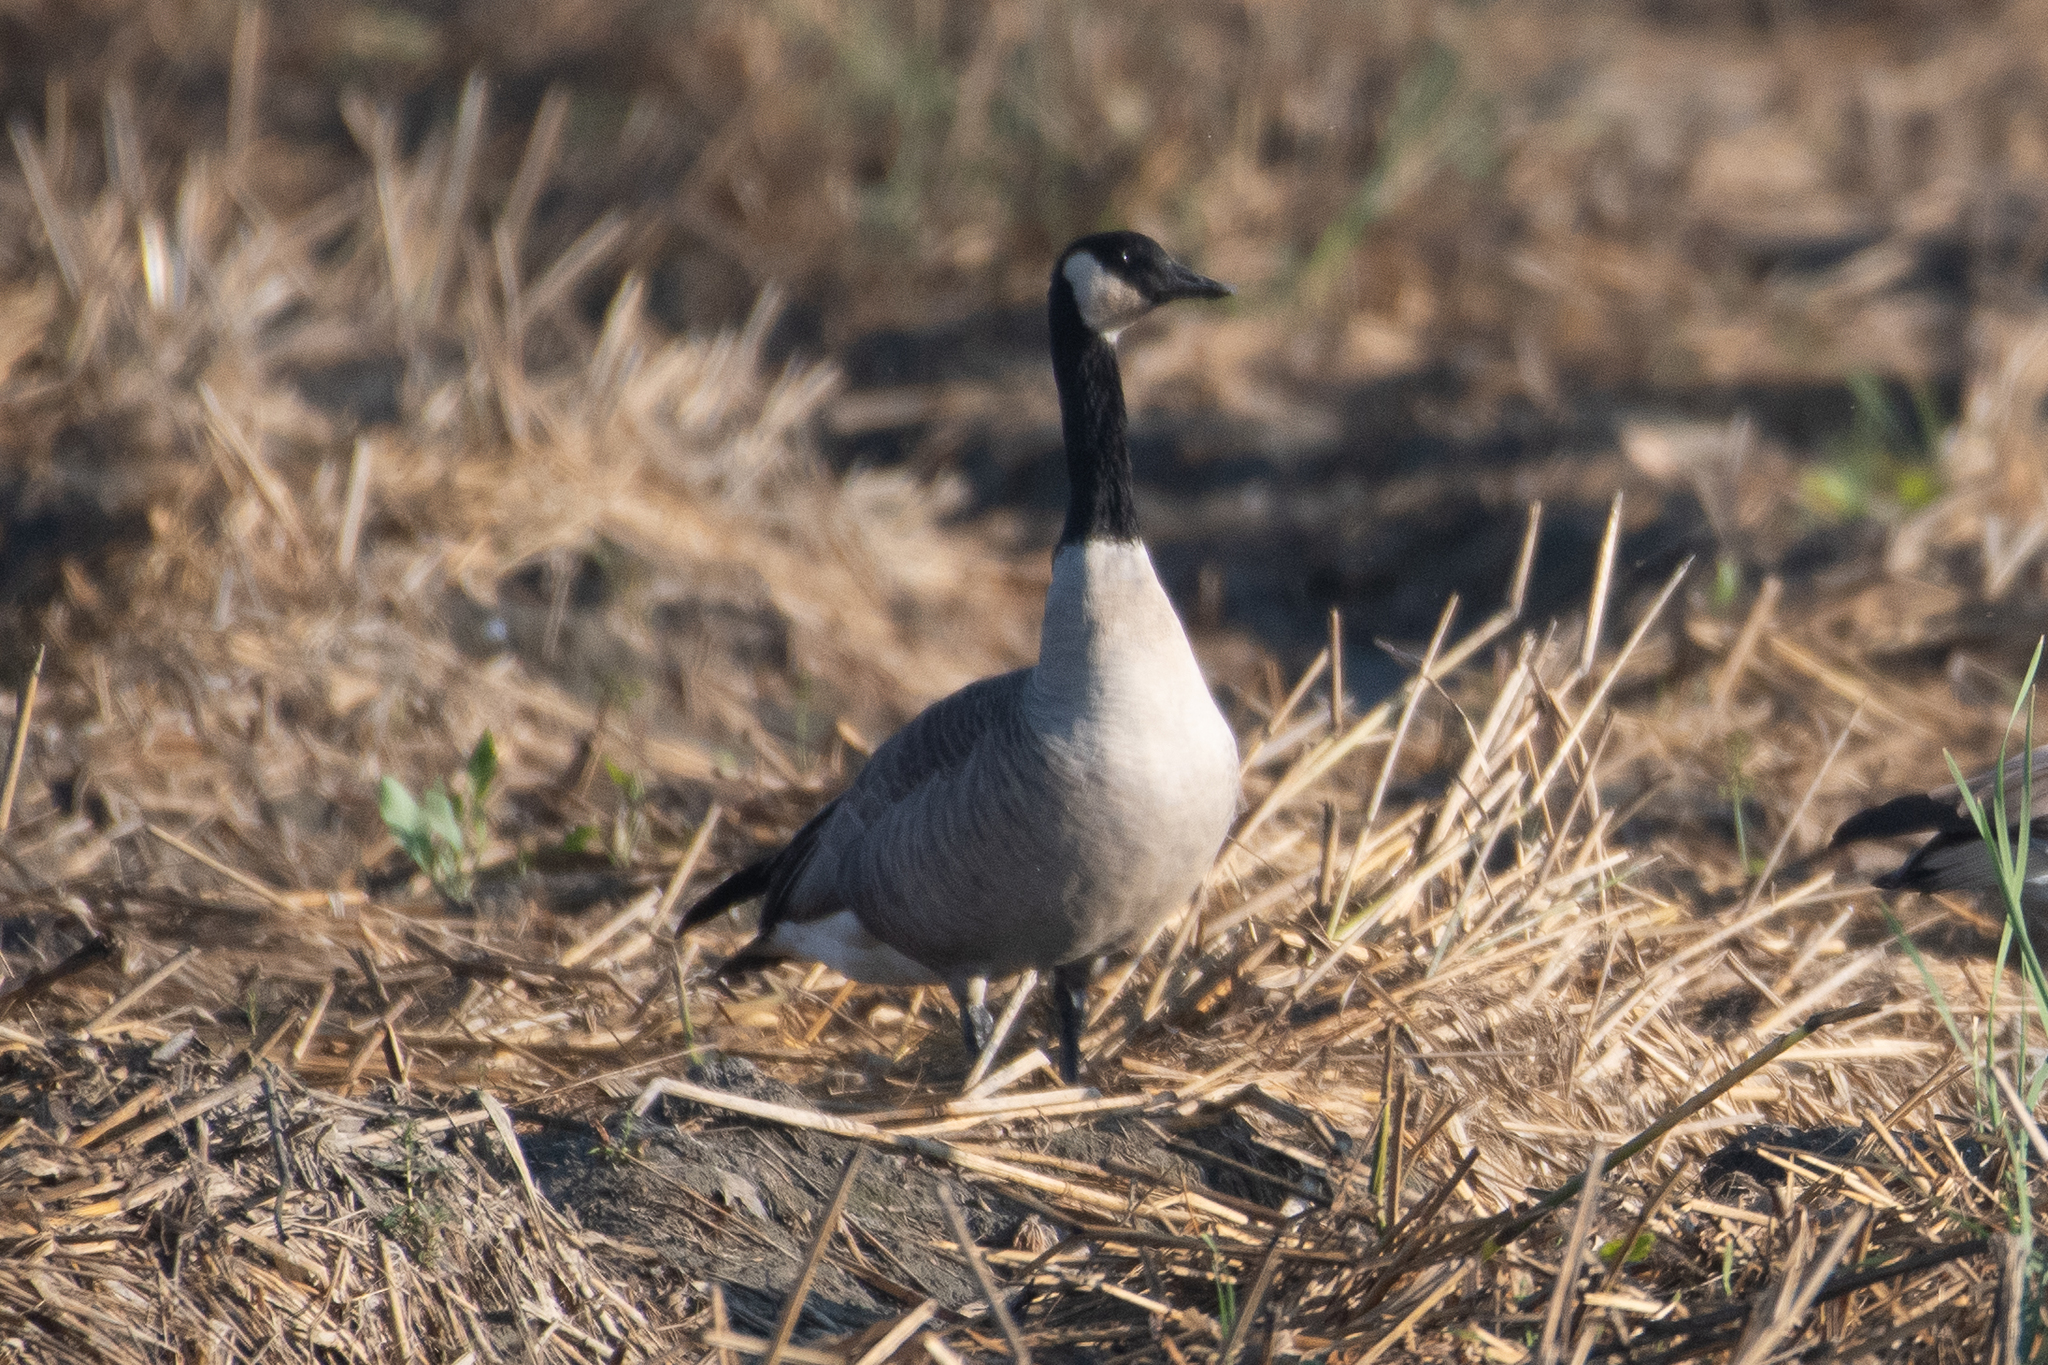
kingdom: Animalia
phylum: Chordata
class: Aves
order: Anseriformes
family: Anatidae
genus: Branta
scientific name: Branta canadensis
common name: Canada goose
